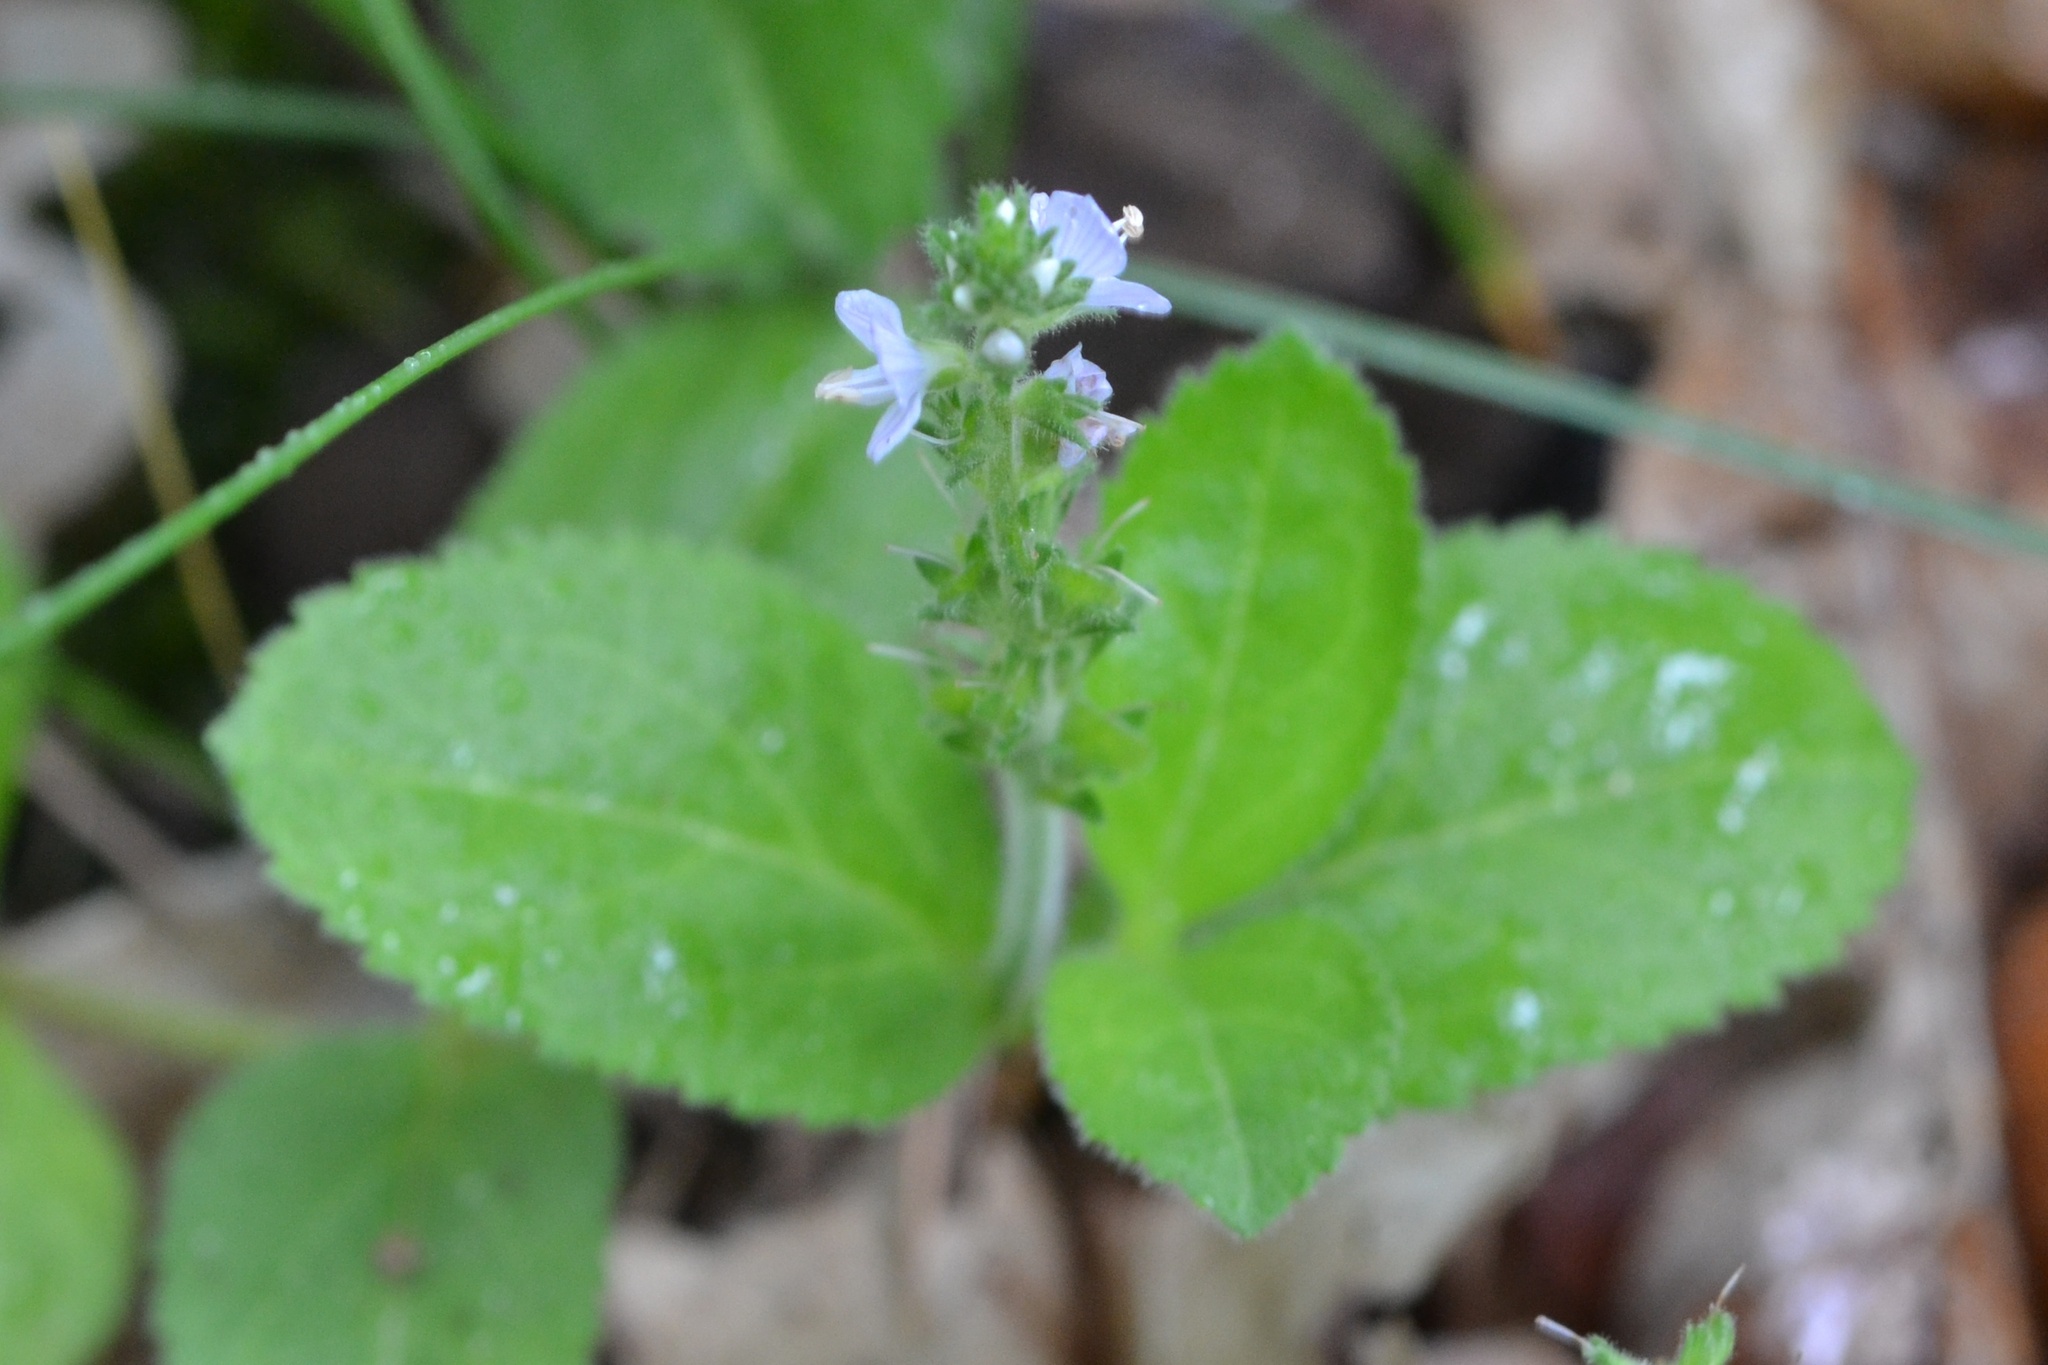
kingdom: Plantae
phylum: Tracheophyta
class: Magnoliopsida
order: Lamiales
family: Plantaginaceae
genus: Veronica
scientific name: Veronica officinalis
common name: Common speedwell
